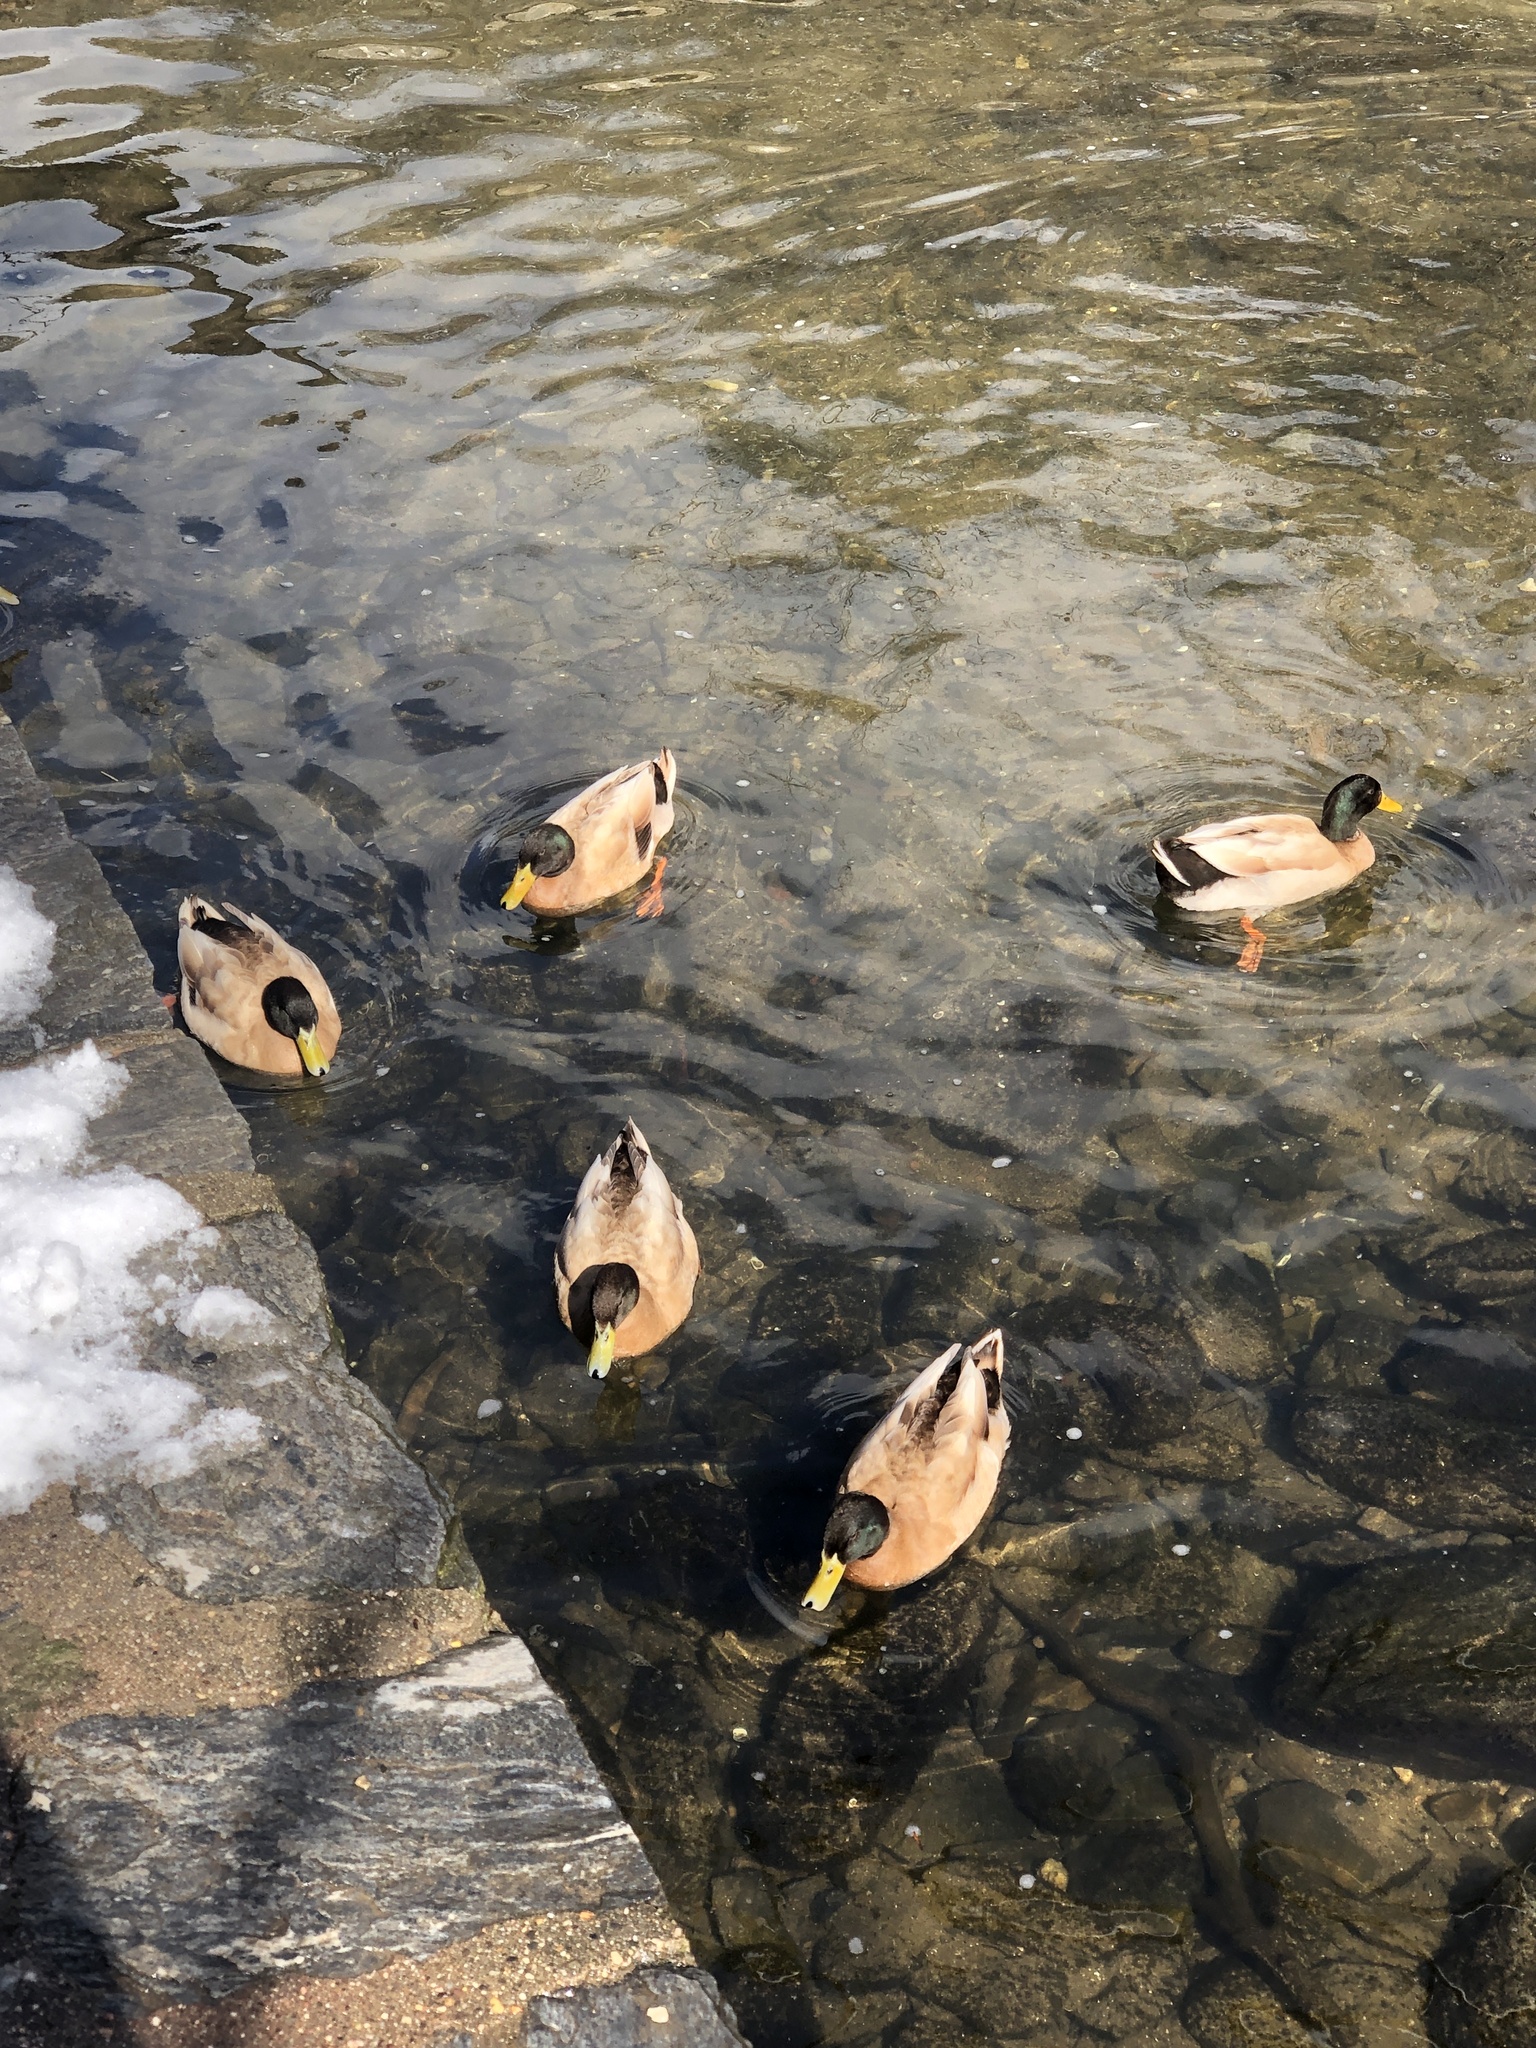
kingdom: Animalia
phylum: Chordata
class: Aves
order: Anseriformes
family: Anatidae
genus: Anas
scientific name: Anas platyrhynchos
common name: Mallard
